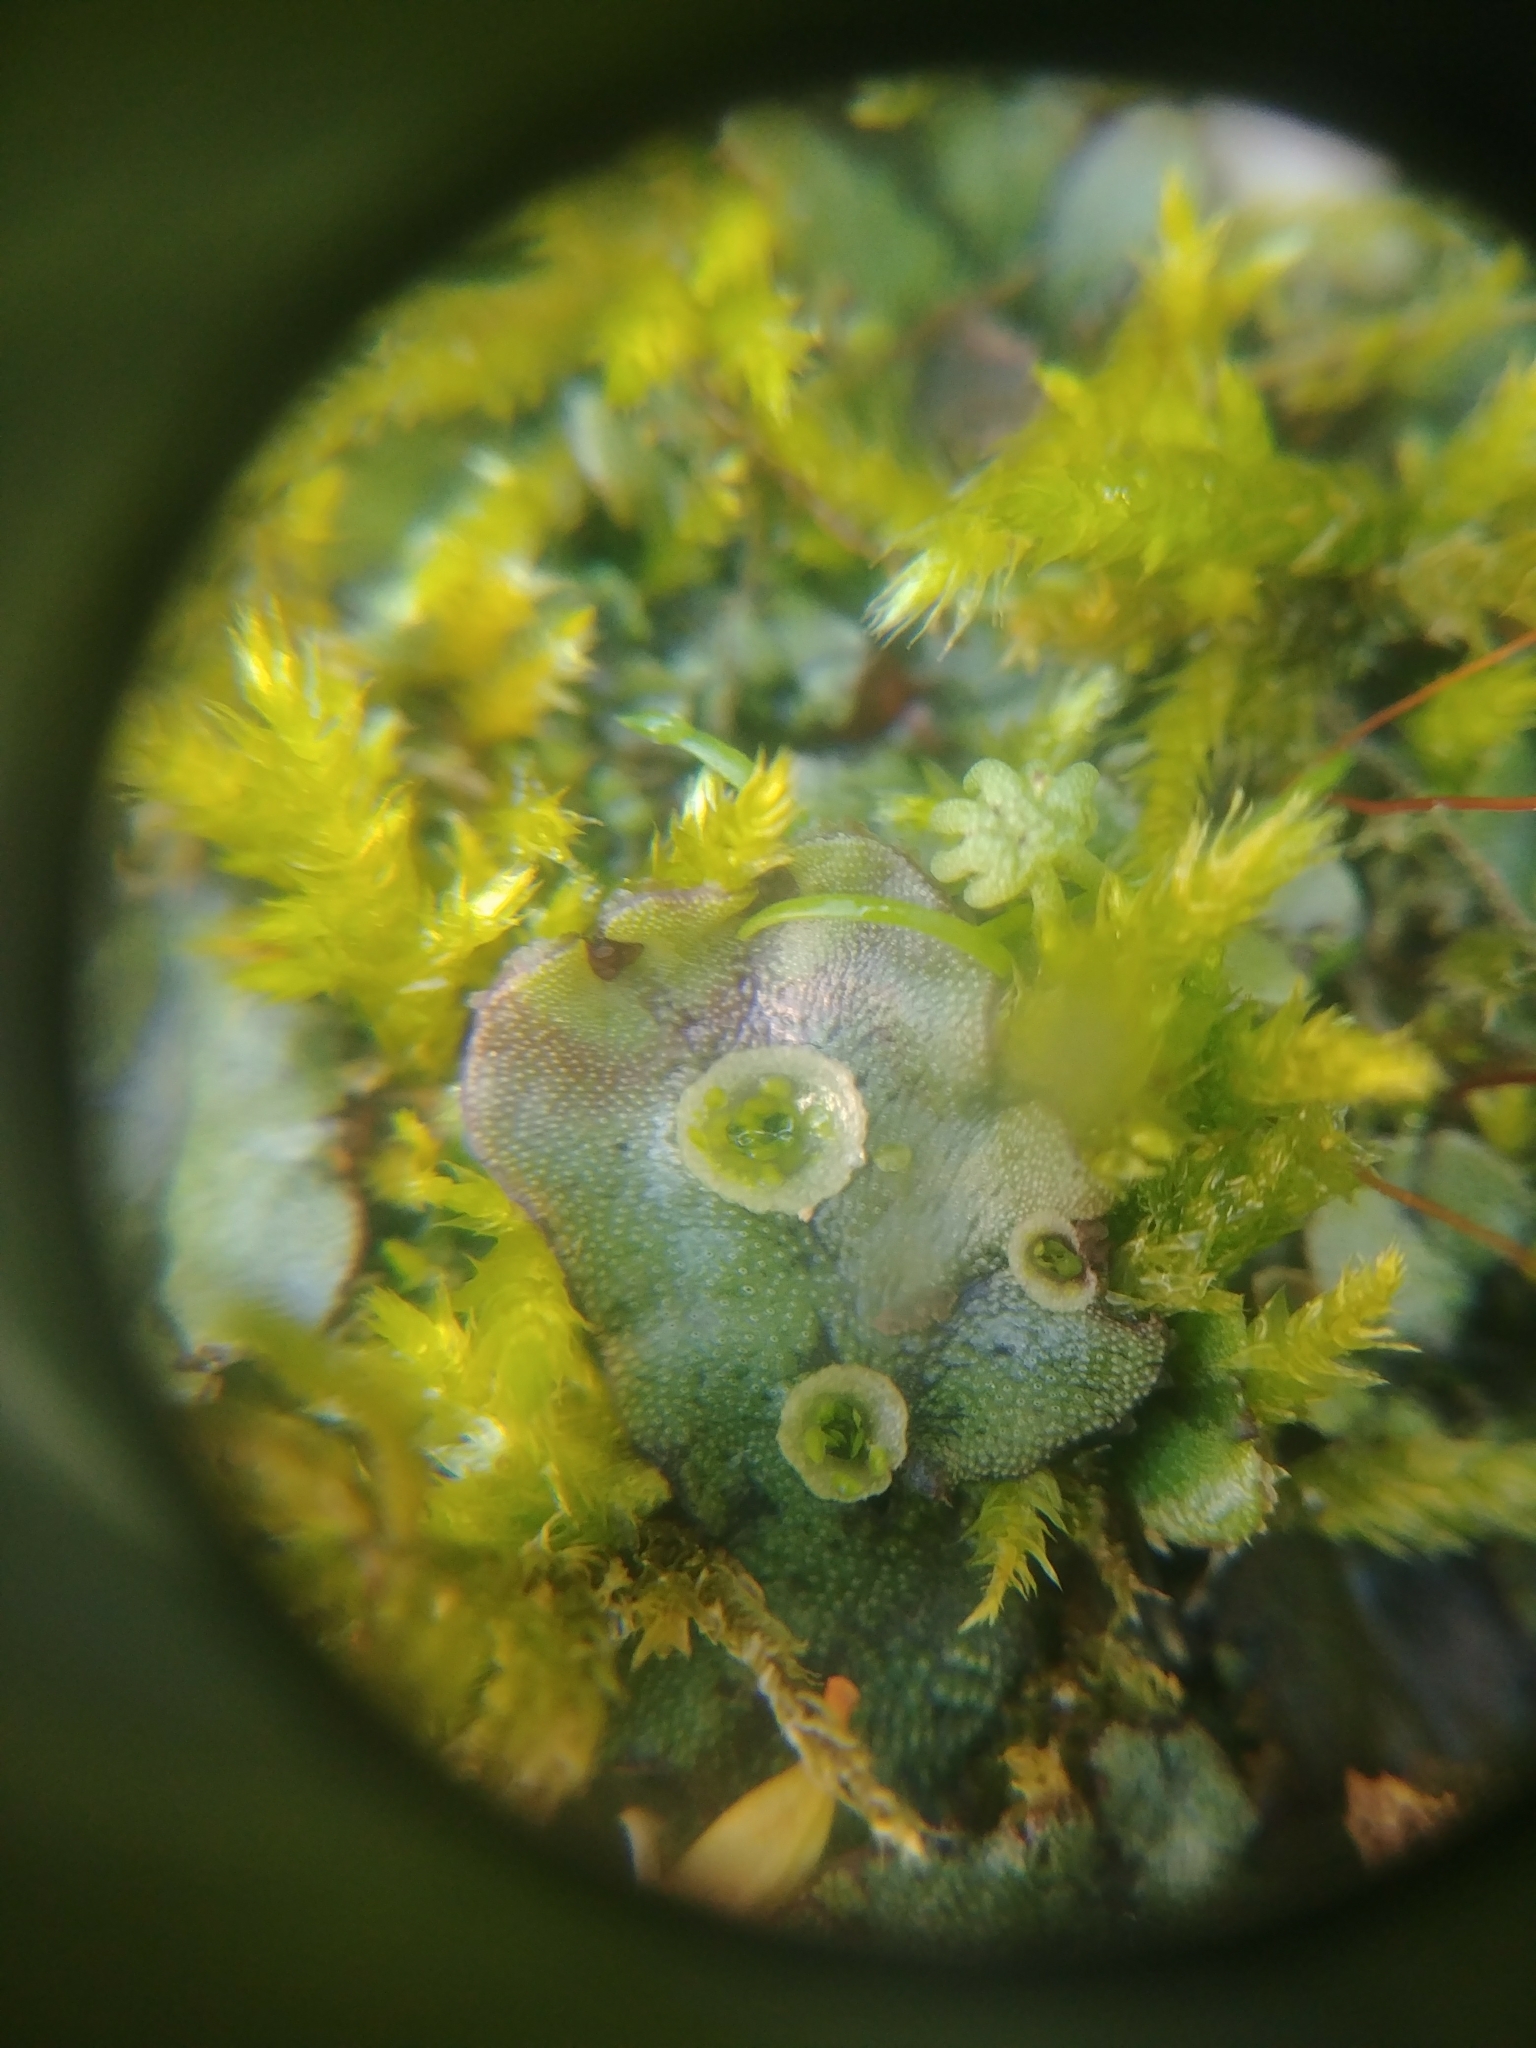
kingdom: Plantae
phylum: Marchantiophyta
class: Marchantiopsida
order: Marchantiales
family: Marchantiaceae
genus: Marchantia
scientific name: Marchantia polymorpha
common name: Common liverwort
